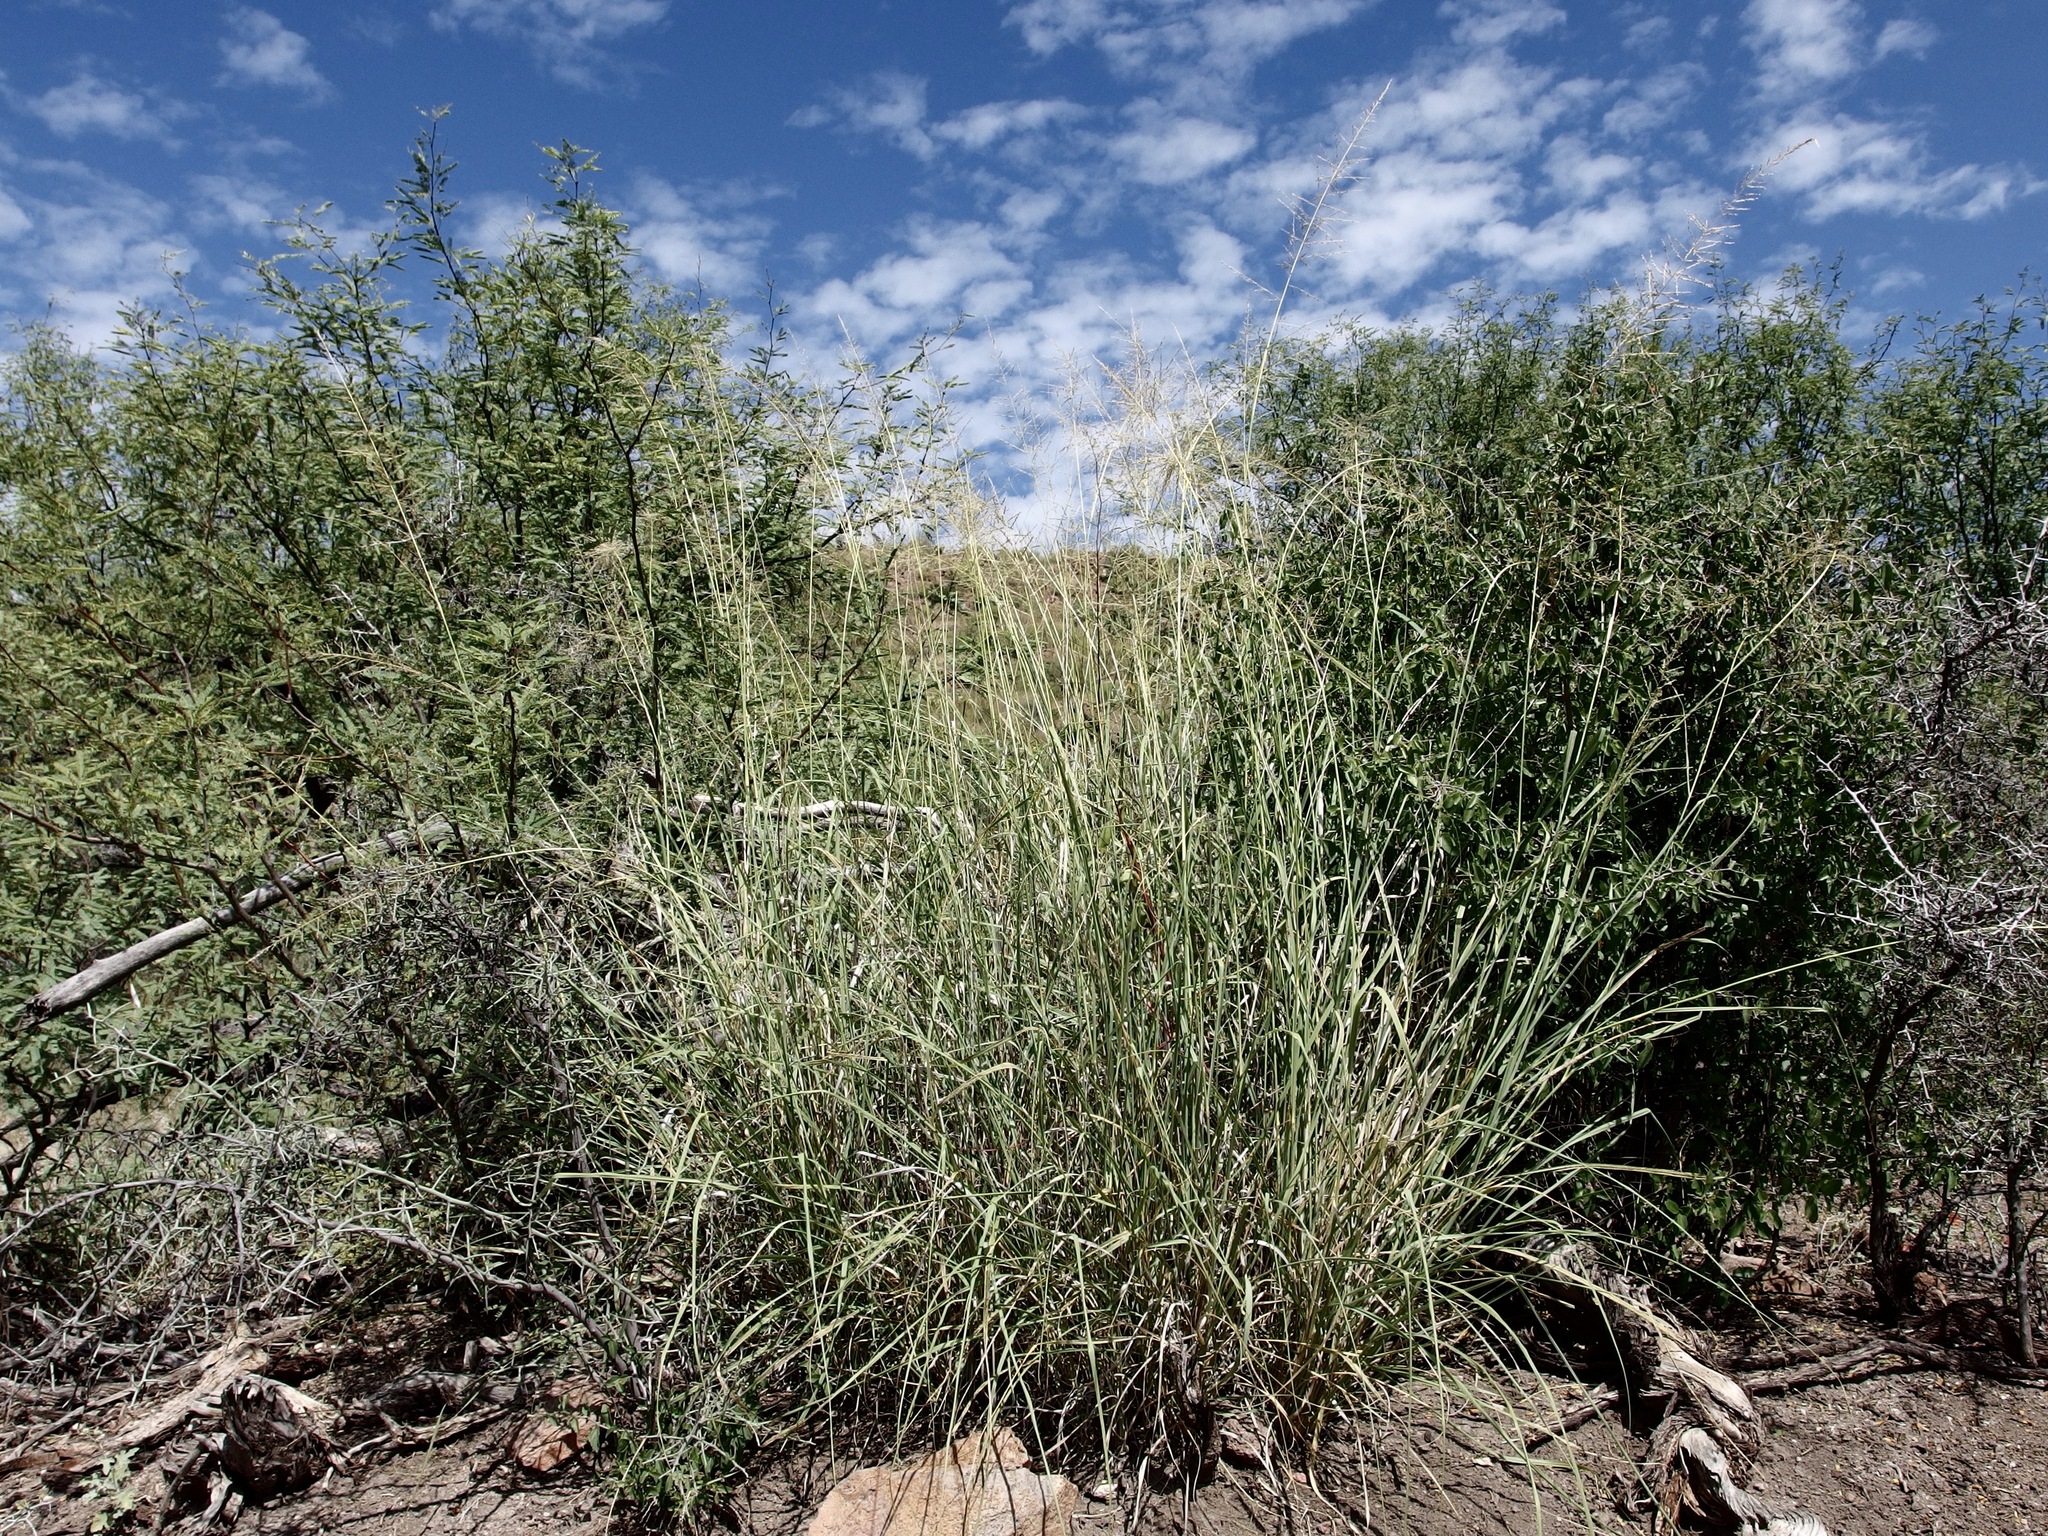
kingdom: Plantae
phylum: Tracheophyta
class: Liliopsida
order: Poales
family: Poaceae
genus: Sporobolus
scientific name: Sporobolus wrightii
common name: Big alkali sacaton
